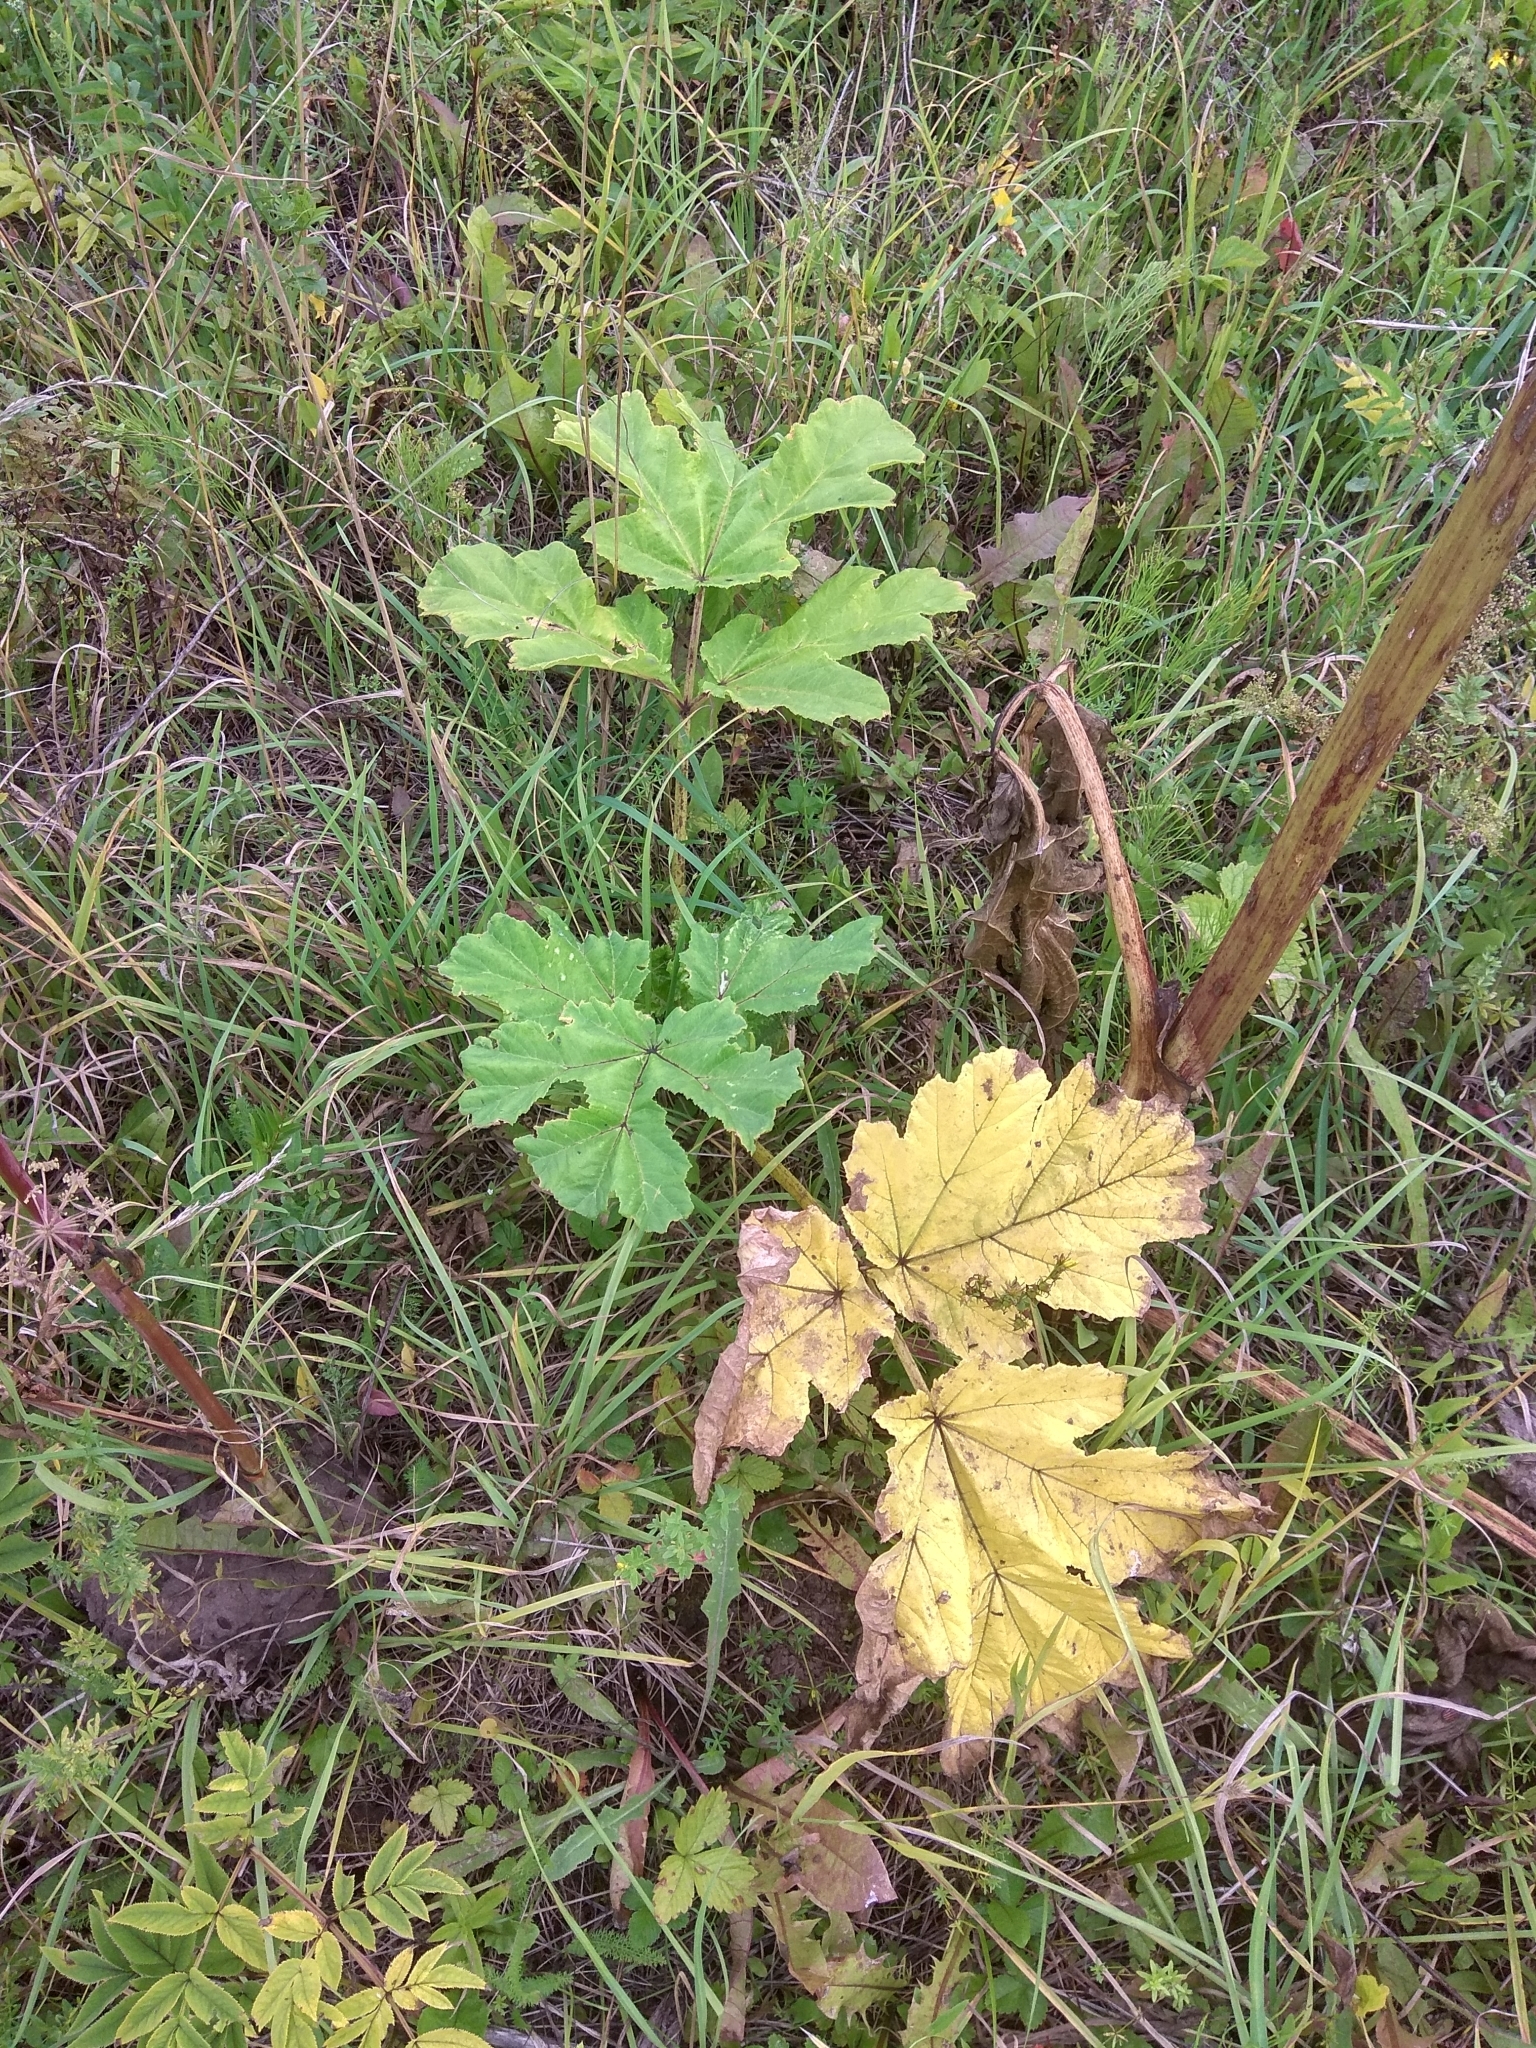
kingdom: Plantae
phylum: Tracheophyta
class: Magnoliopsida
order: Apiales
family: Apiaceae
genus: Heracleum
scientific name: Heracleum sosnowskyi
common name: Sosnowsky's hogweed
